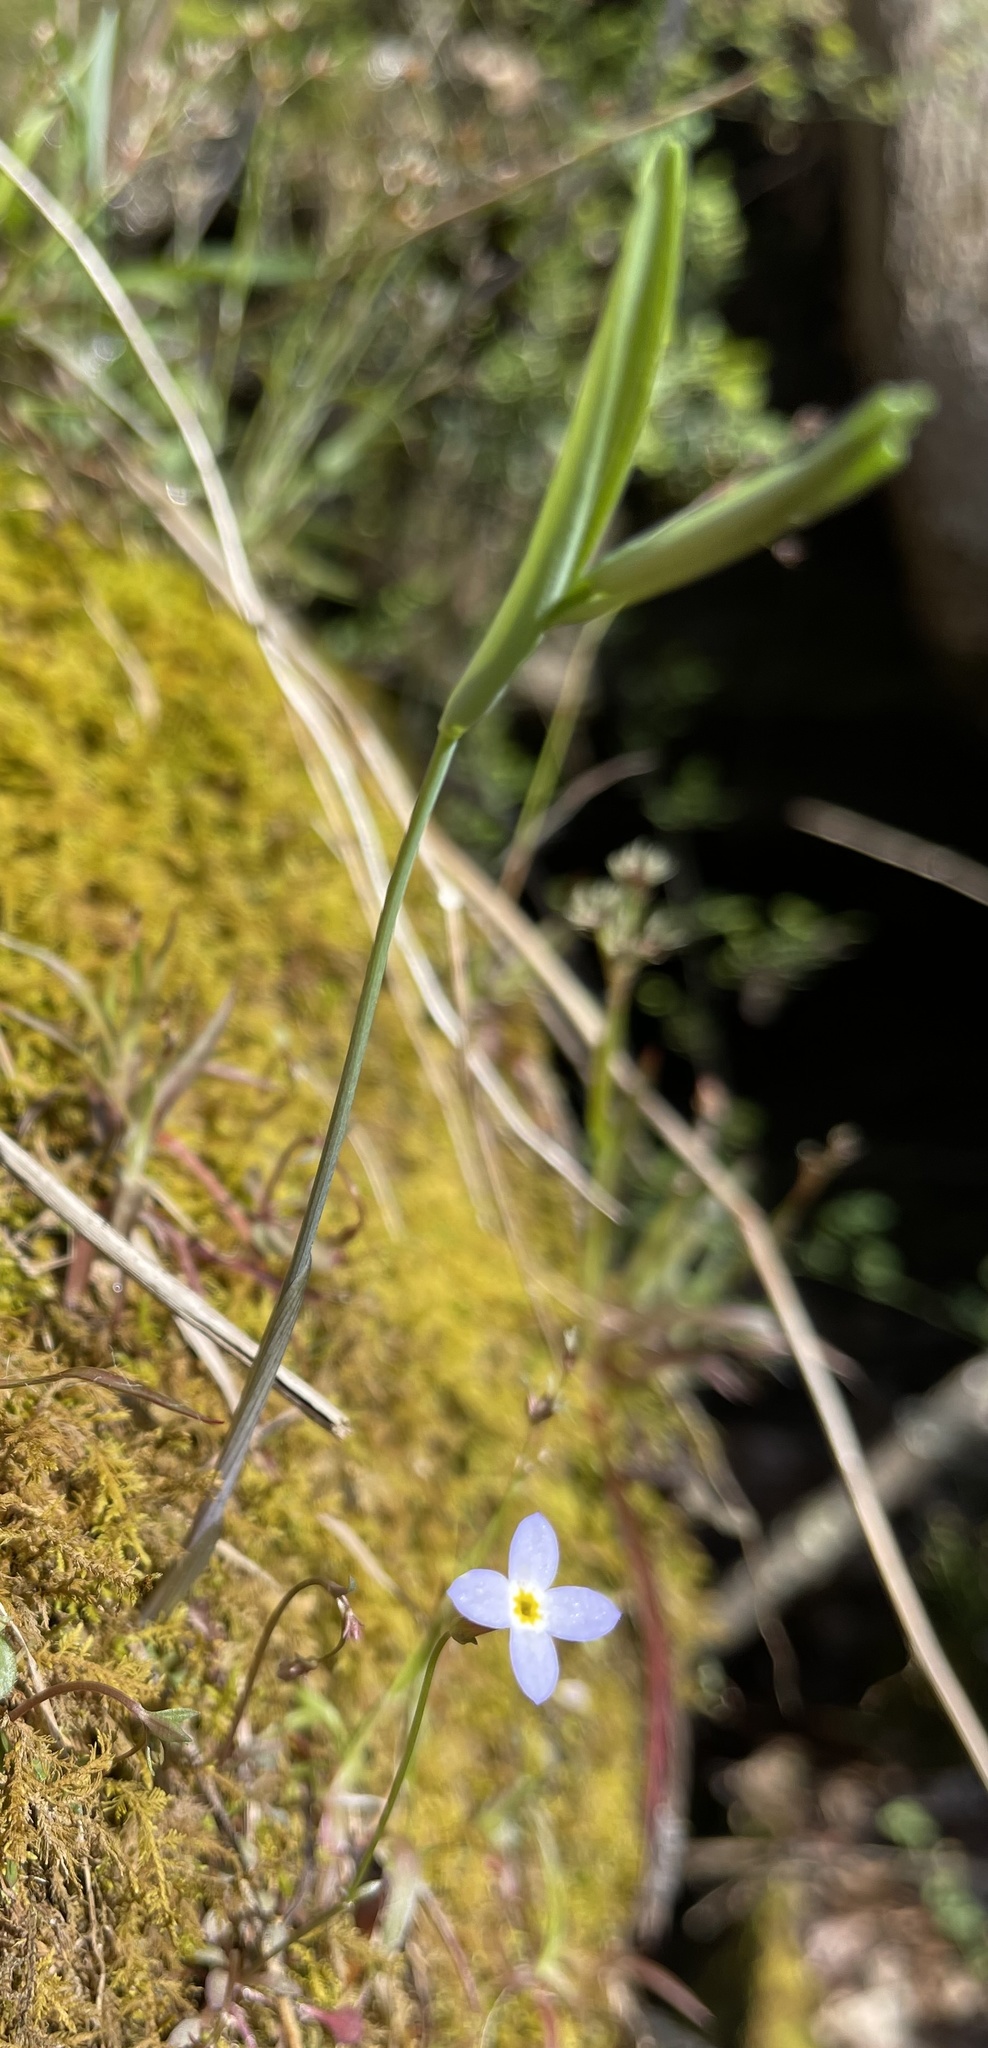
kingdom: Plantae
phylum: Tracheophyta
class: Magnoliopsida
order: Gentianales
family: Rubiaceae
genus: Houstonia
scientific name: Houstonia caerulea
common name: Bluets
